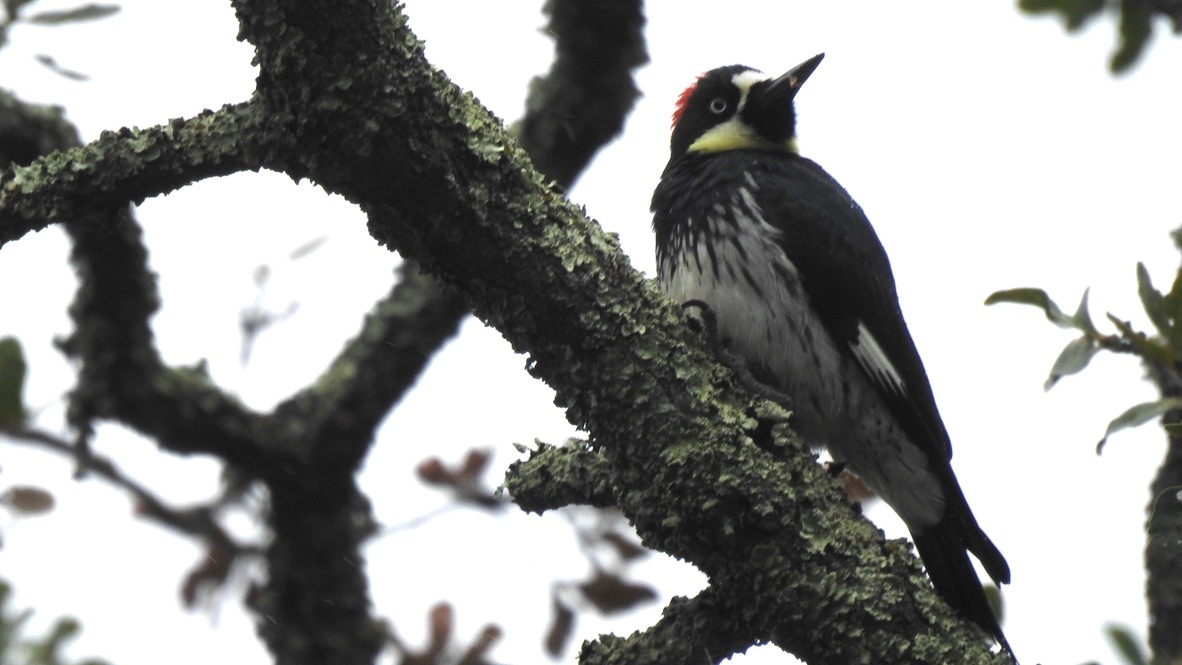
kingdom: Animalia
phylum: Chordata
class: Aves
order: Piciformes
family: Picidae
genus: Melanerpes
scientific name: Melanerpes formicivorus
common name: Acorn woodpecker
